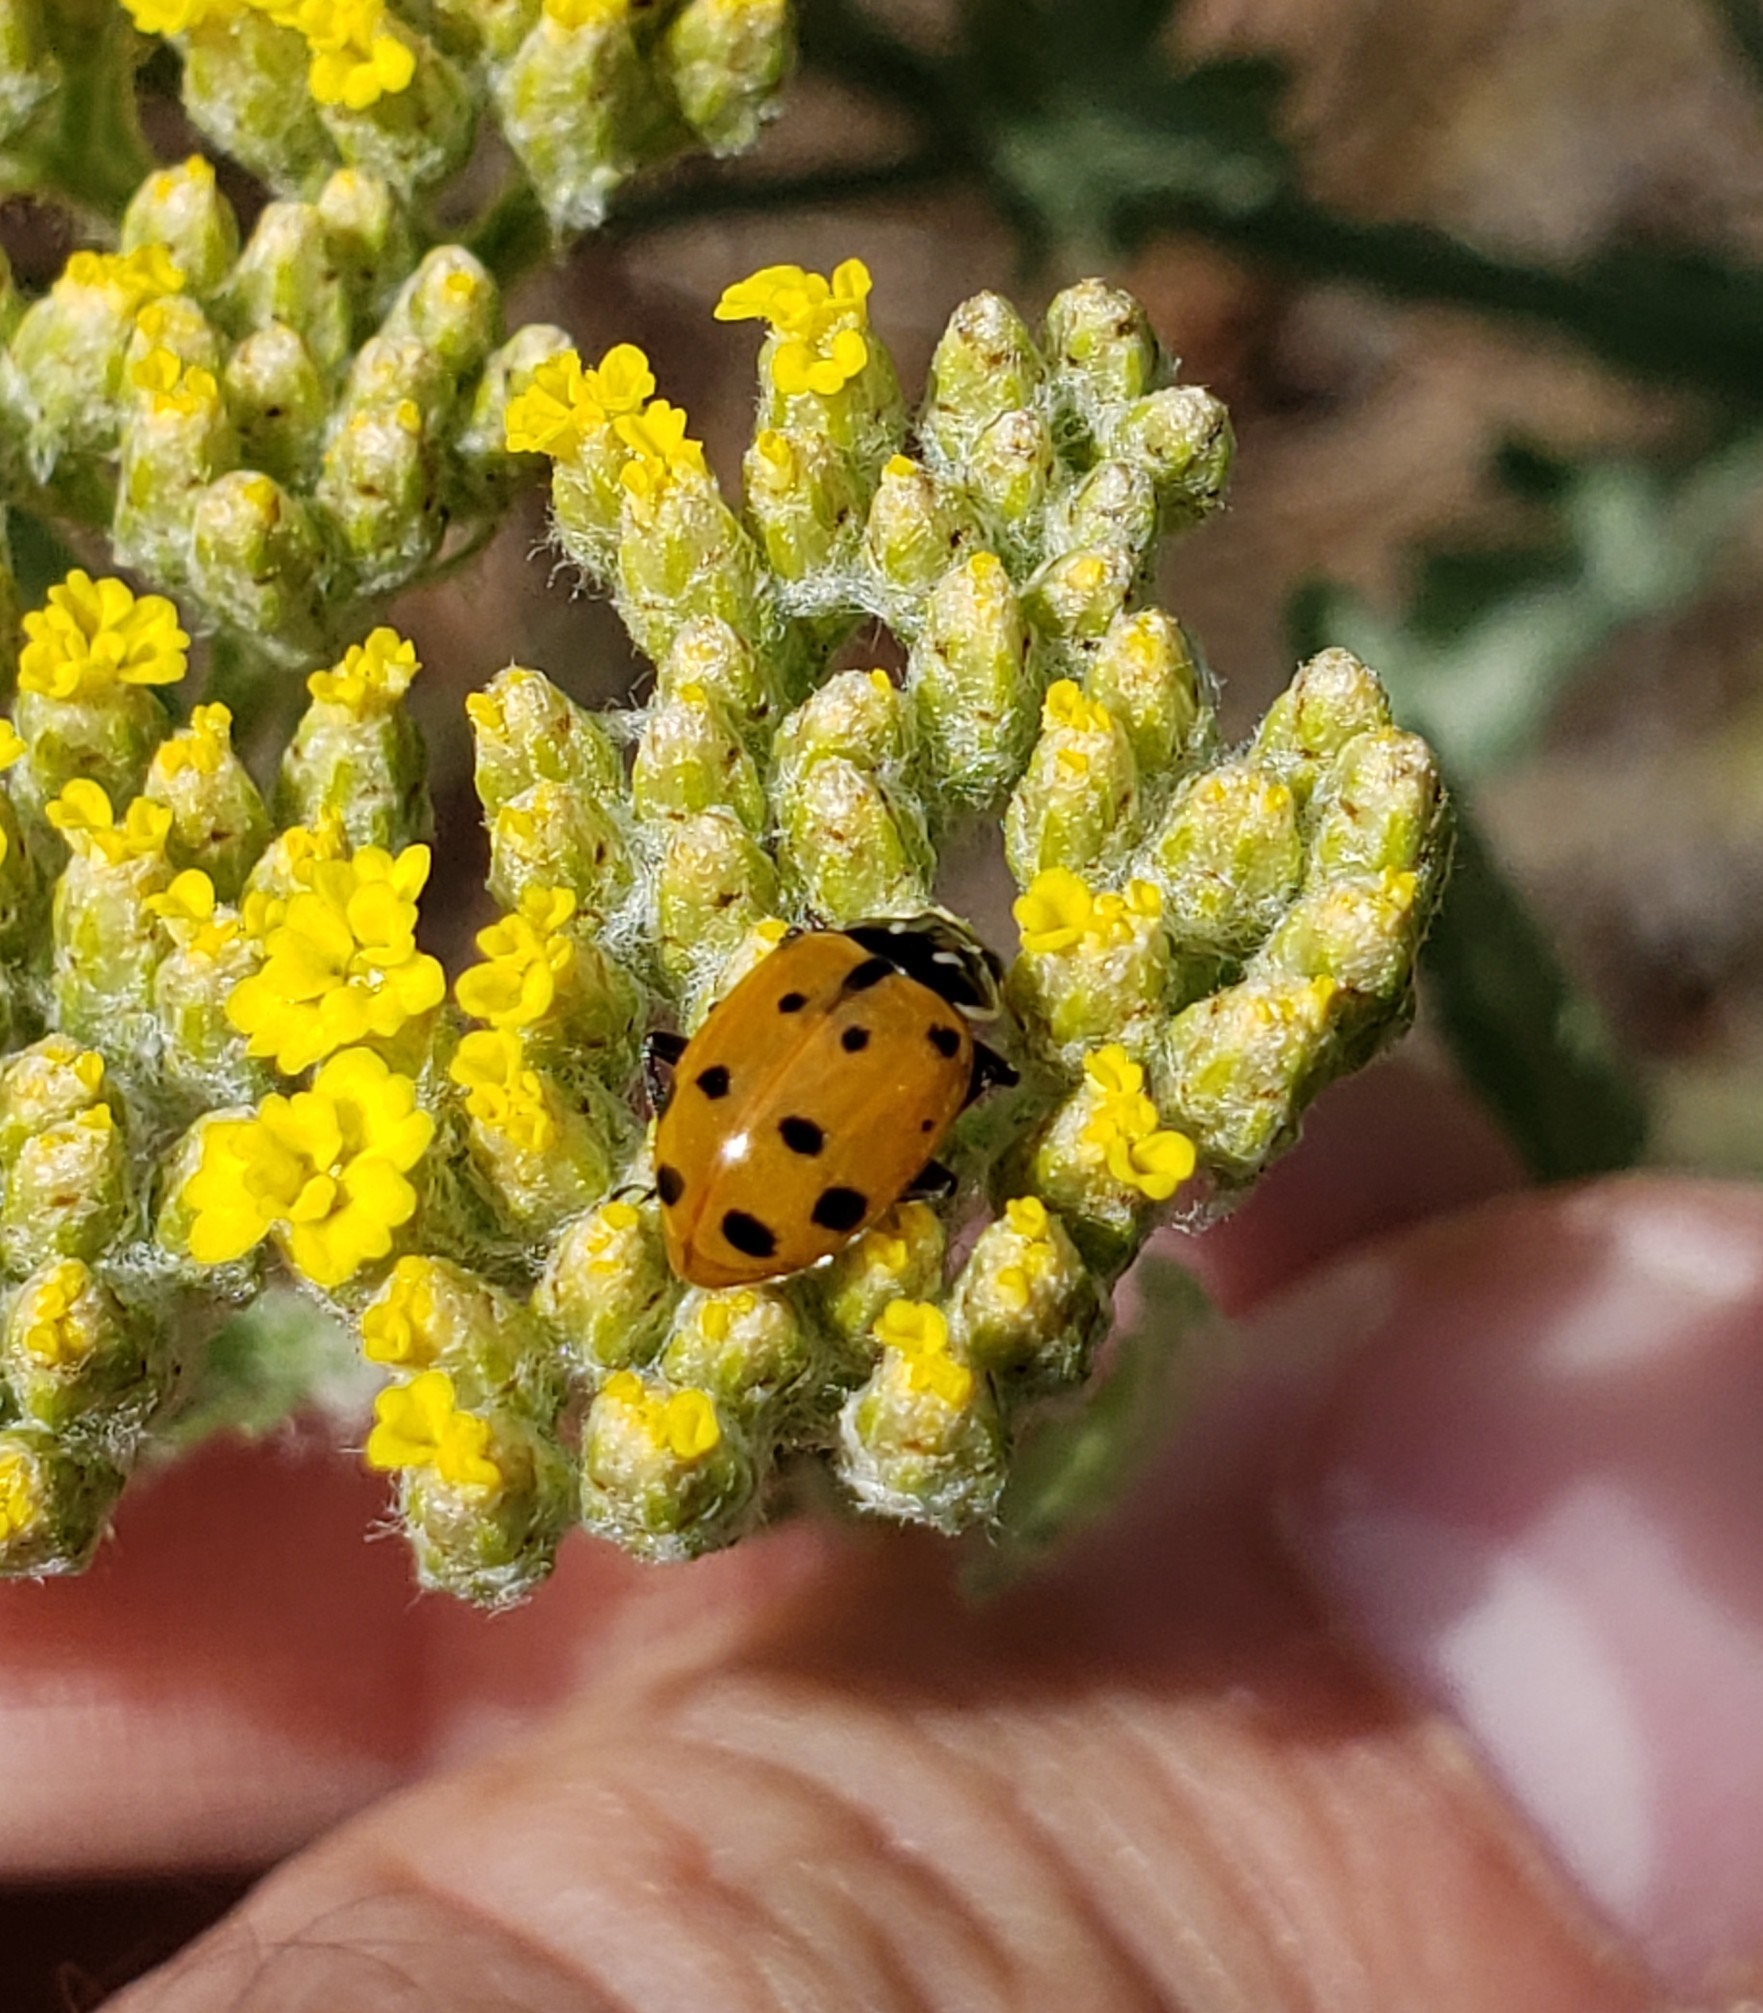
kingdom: Animalia
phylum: Arthropoda
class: Insecta
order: Coleoptera
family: Coccinellidae
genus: Hippodamia
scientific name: Hippodamia convergens
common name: Convergent lady beetle
